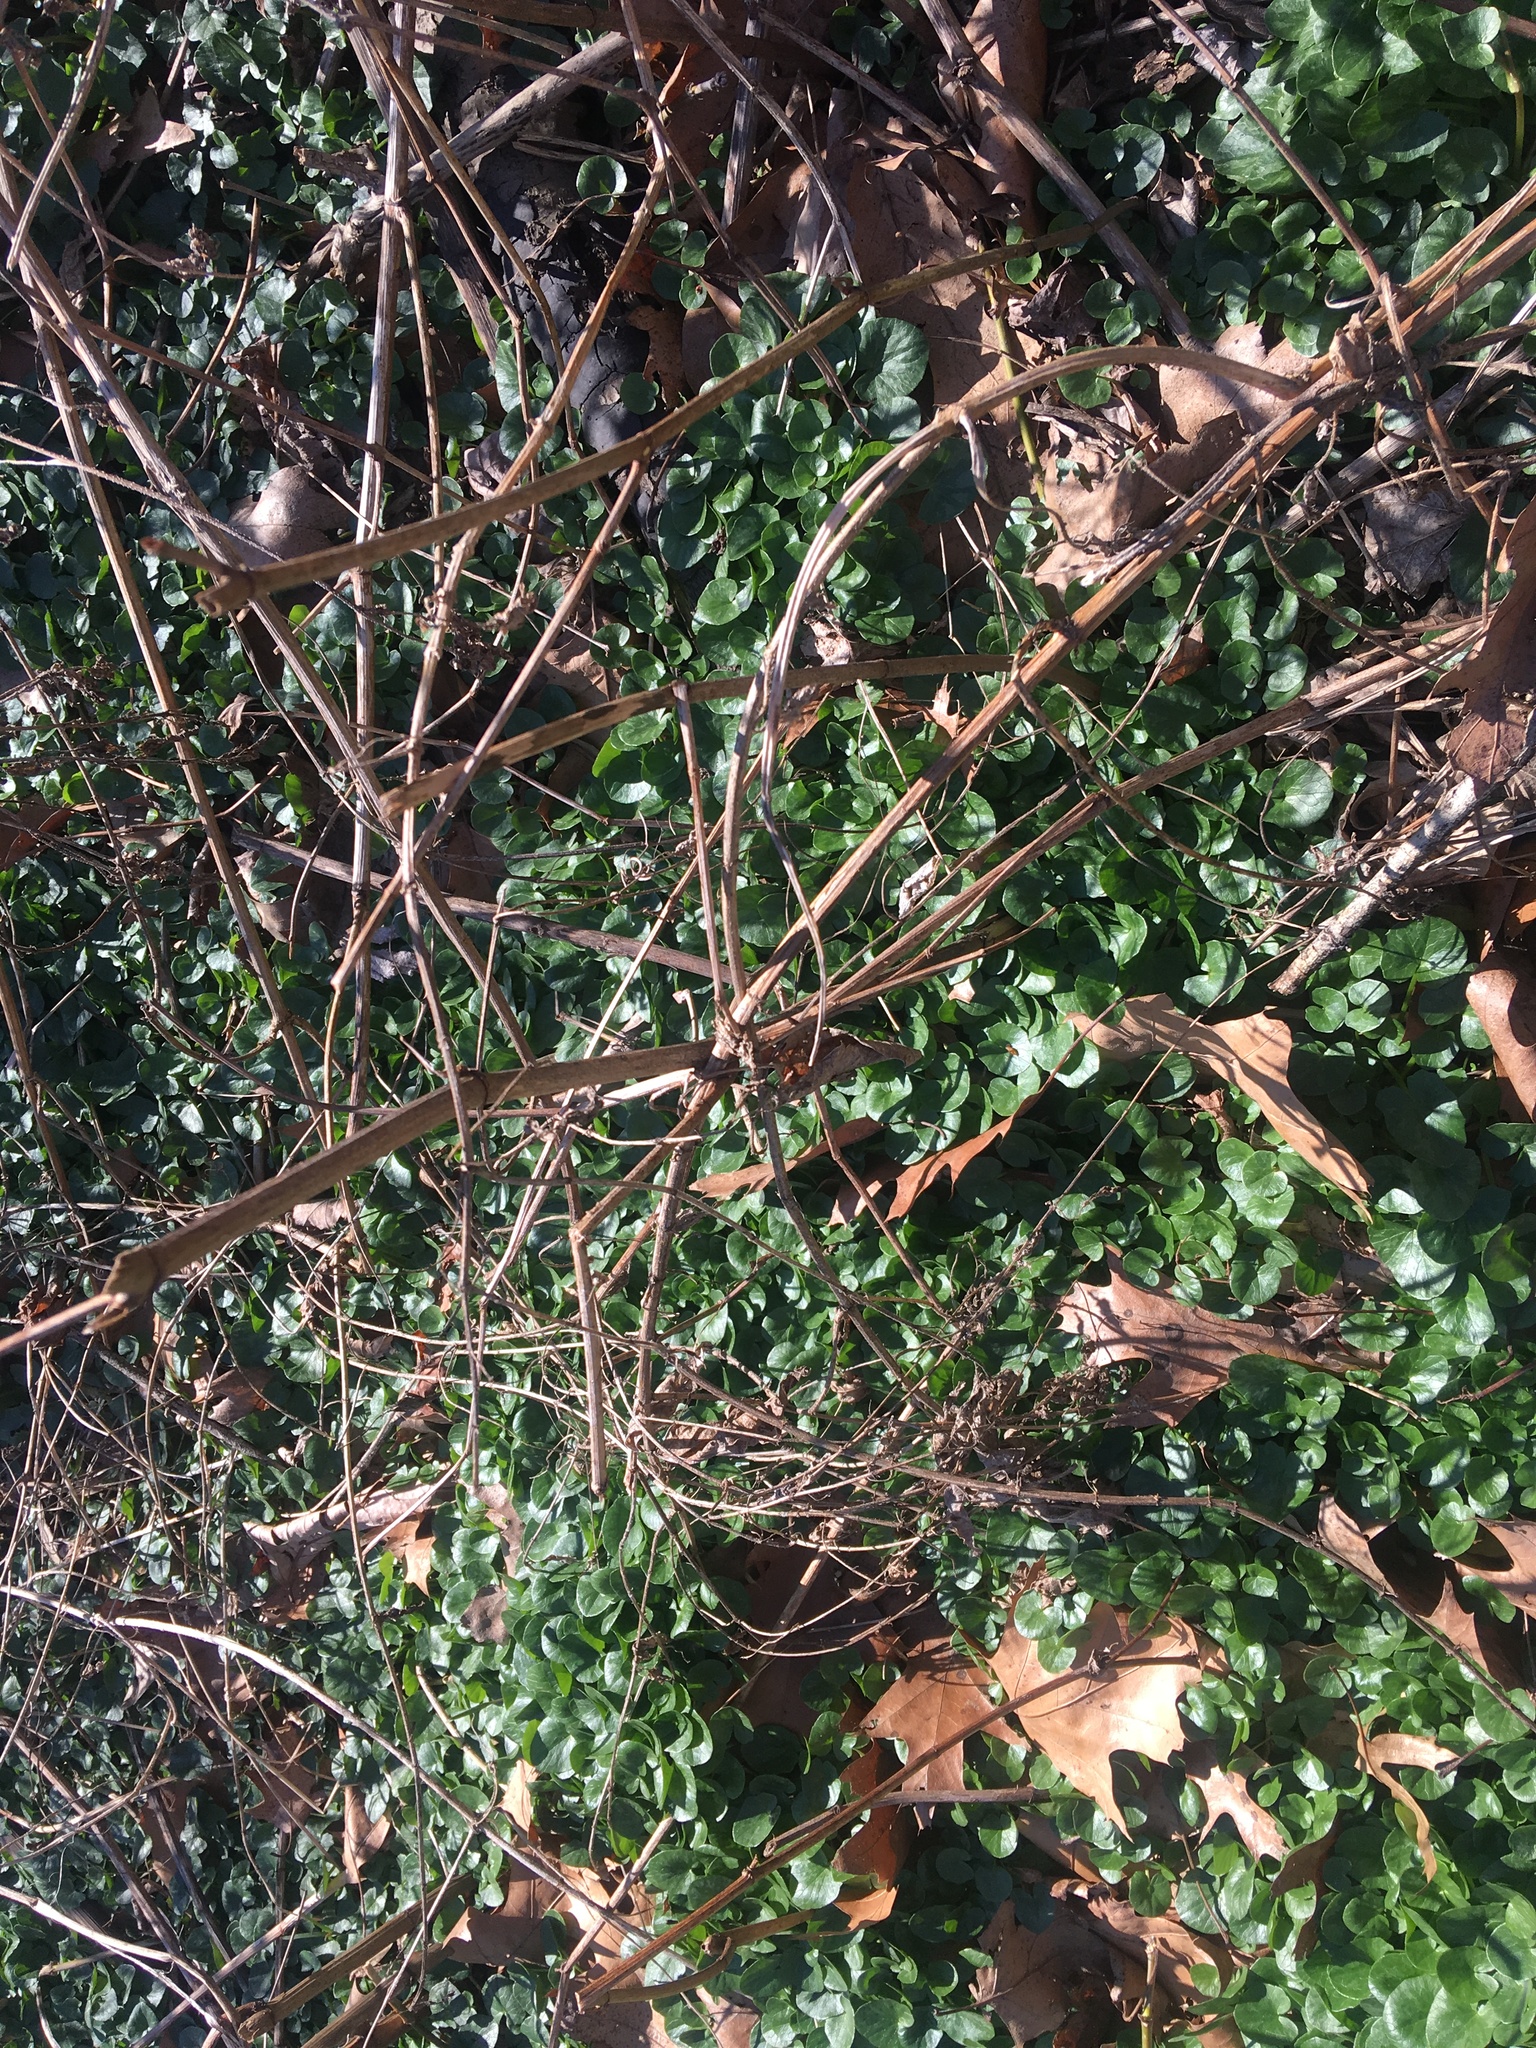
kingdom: Plantae
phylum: Tracheophyta
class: Magnoliopsida
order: Ranunculales
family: Ranunculaceae
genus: Ficaria
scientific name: Ficaria verna
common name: Lesser celandine
